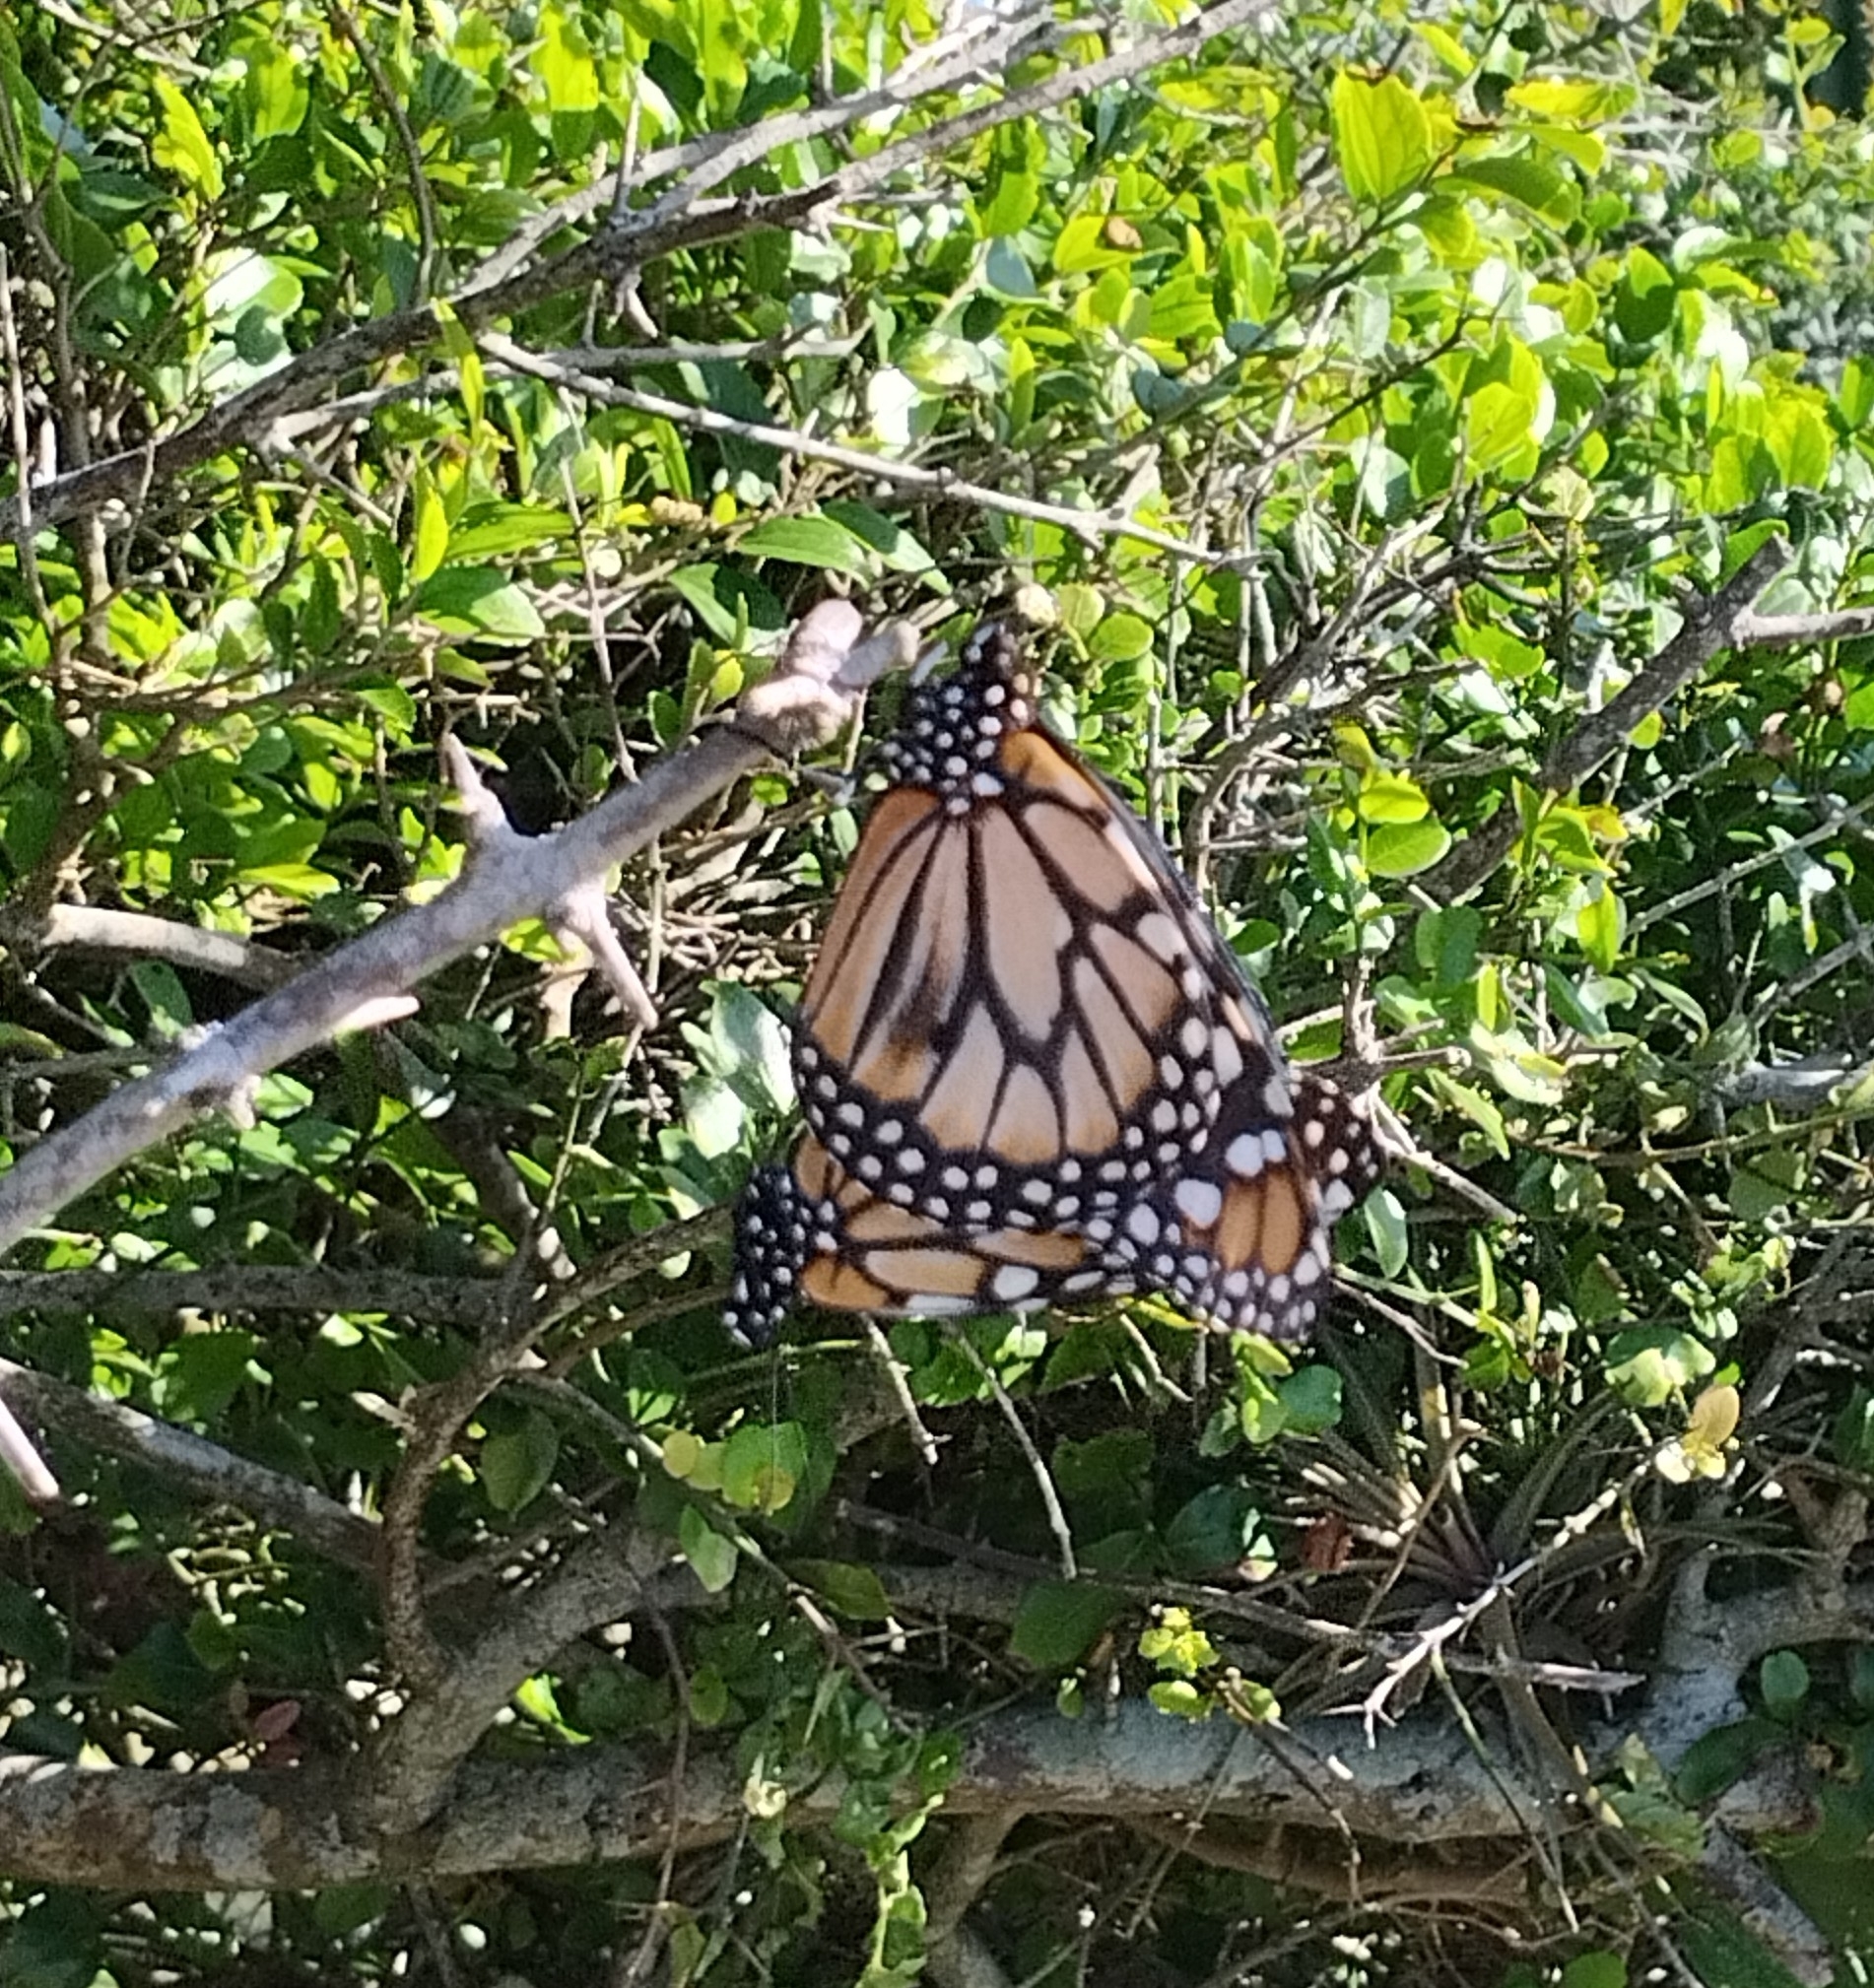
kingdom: Animalia
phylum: Arthropoda
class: Insecta
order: Lepidoptera
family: Nymphalidae
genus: Danaus
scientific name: Danaus erippus
